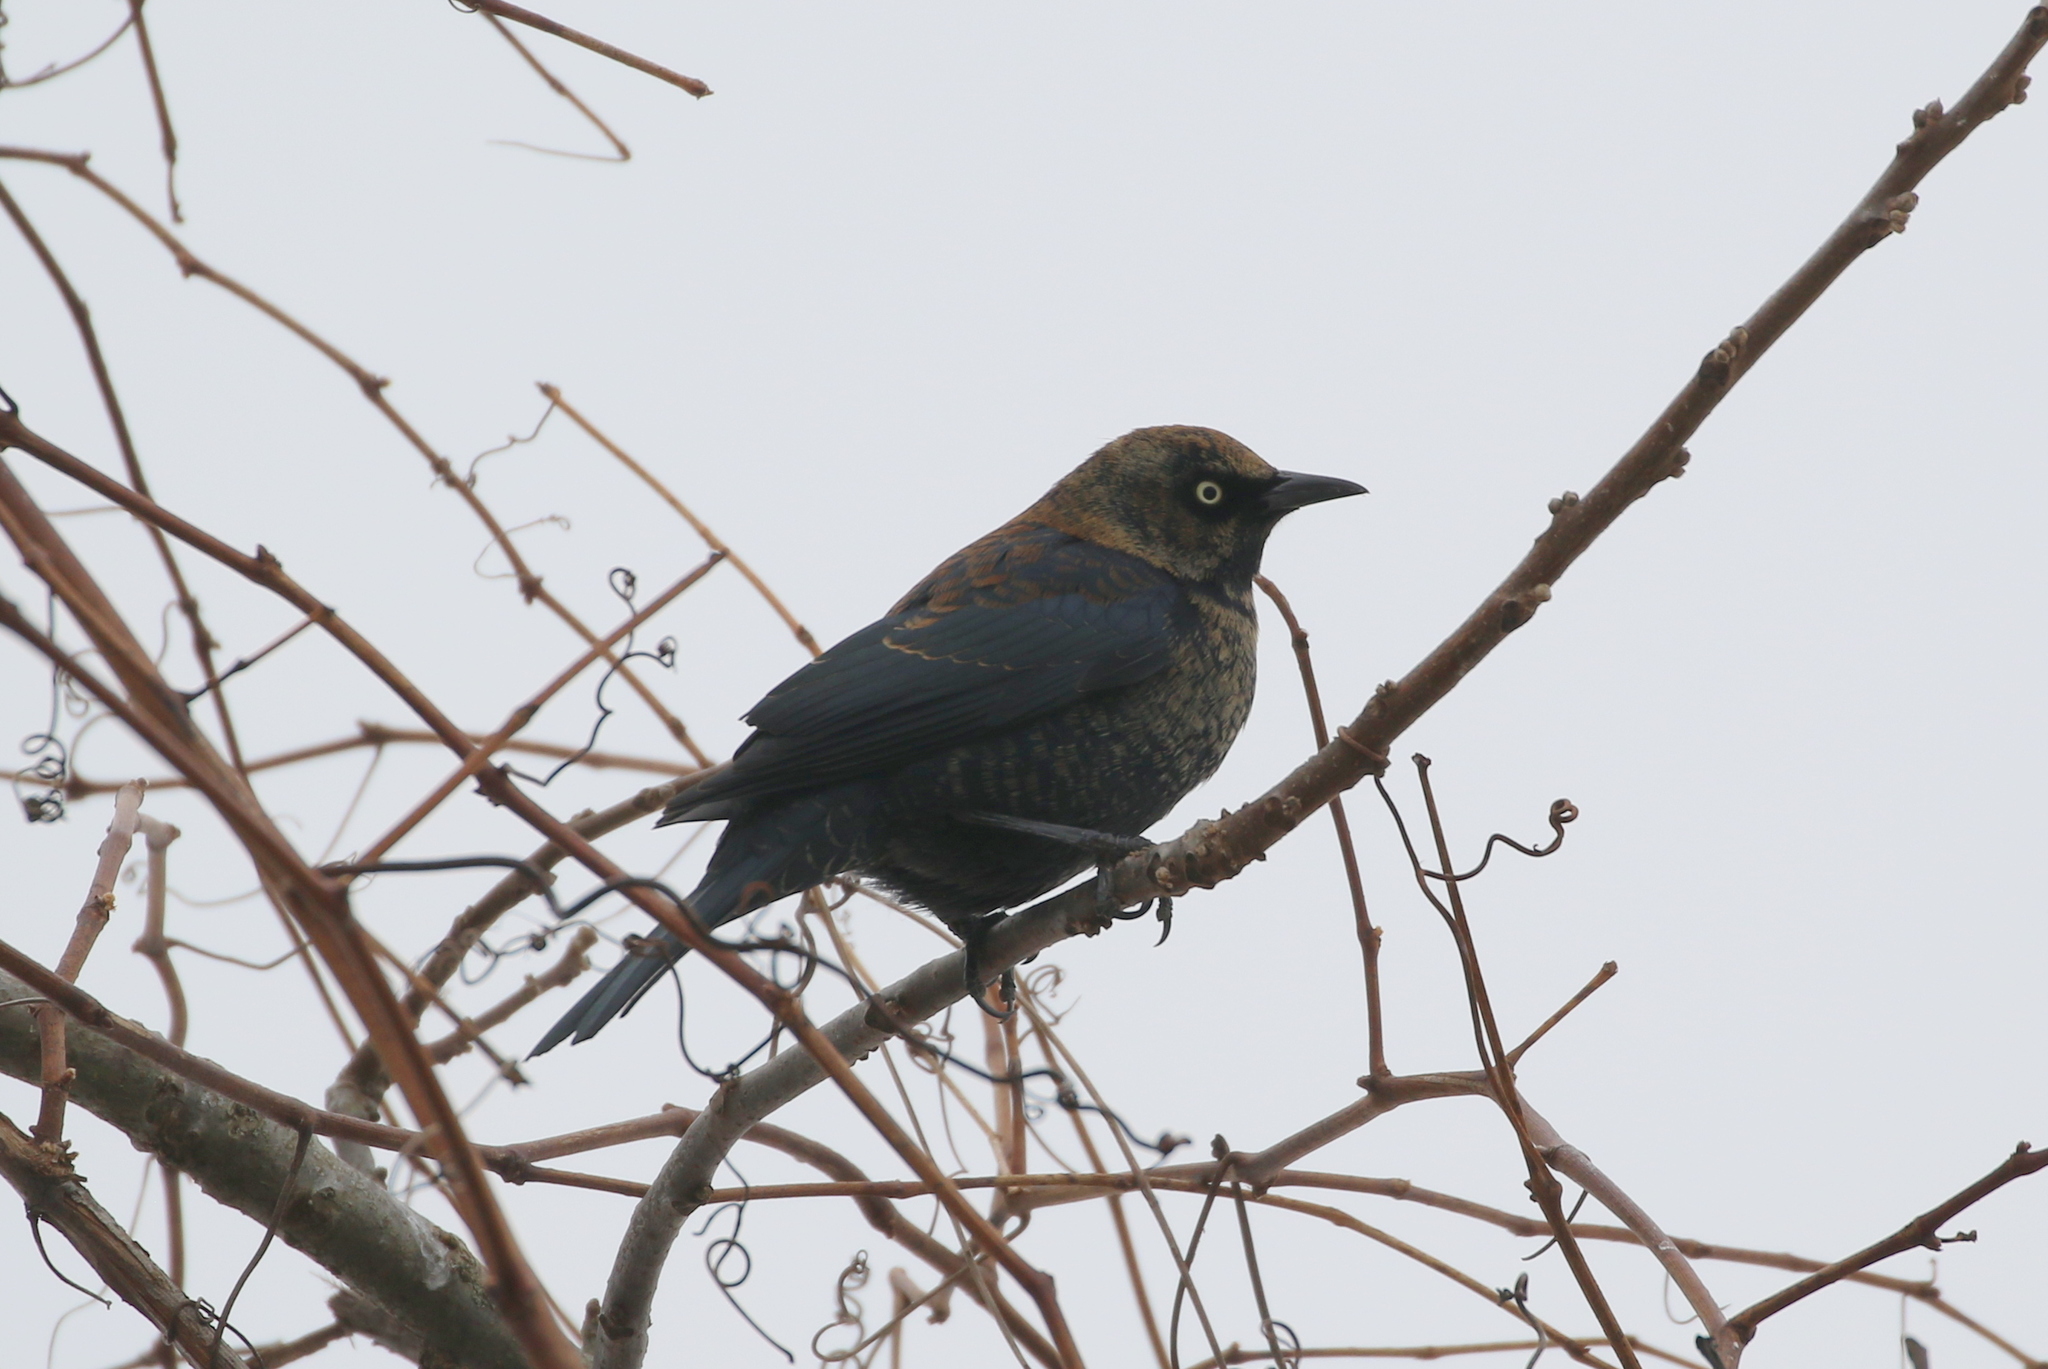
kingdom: Animalia
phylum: Chordata
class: Aves
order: Passeriformes
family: Icteridae
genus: Euphagus
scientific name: Euphagus carolinus
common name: Rusty blackbird
